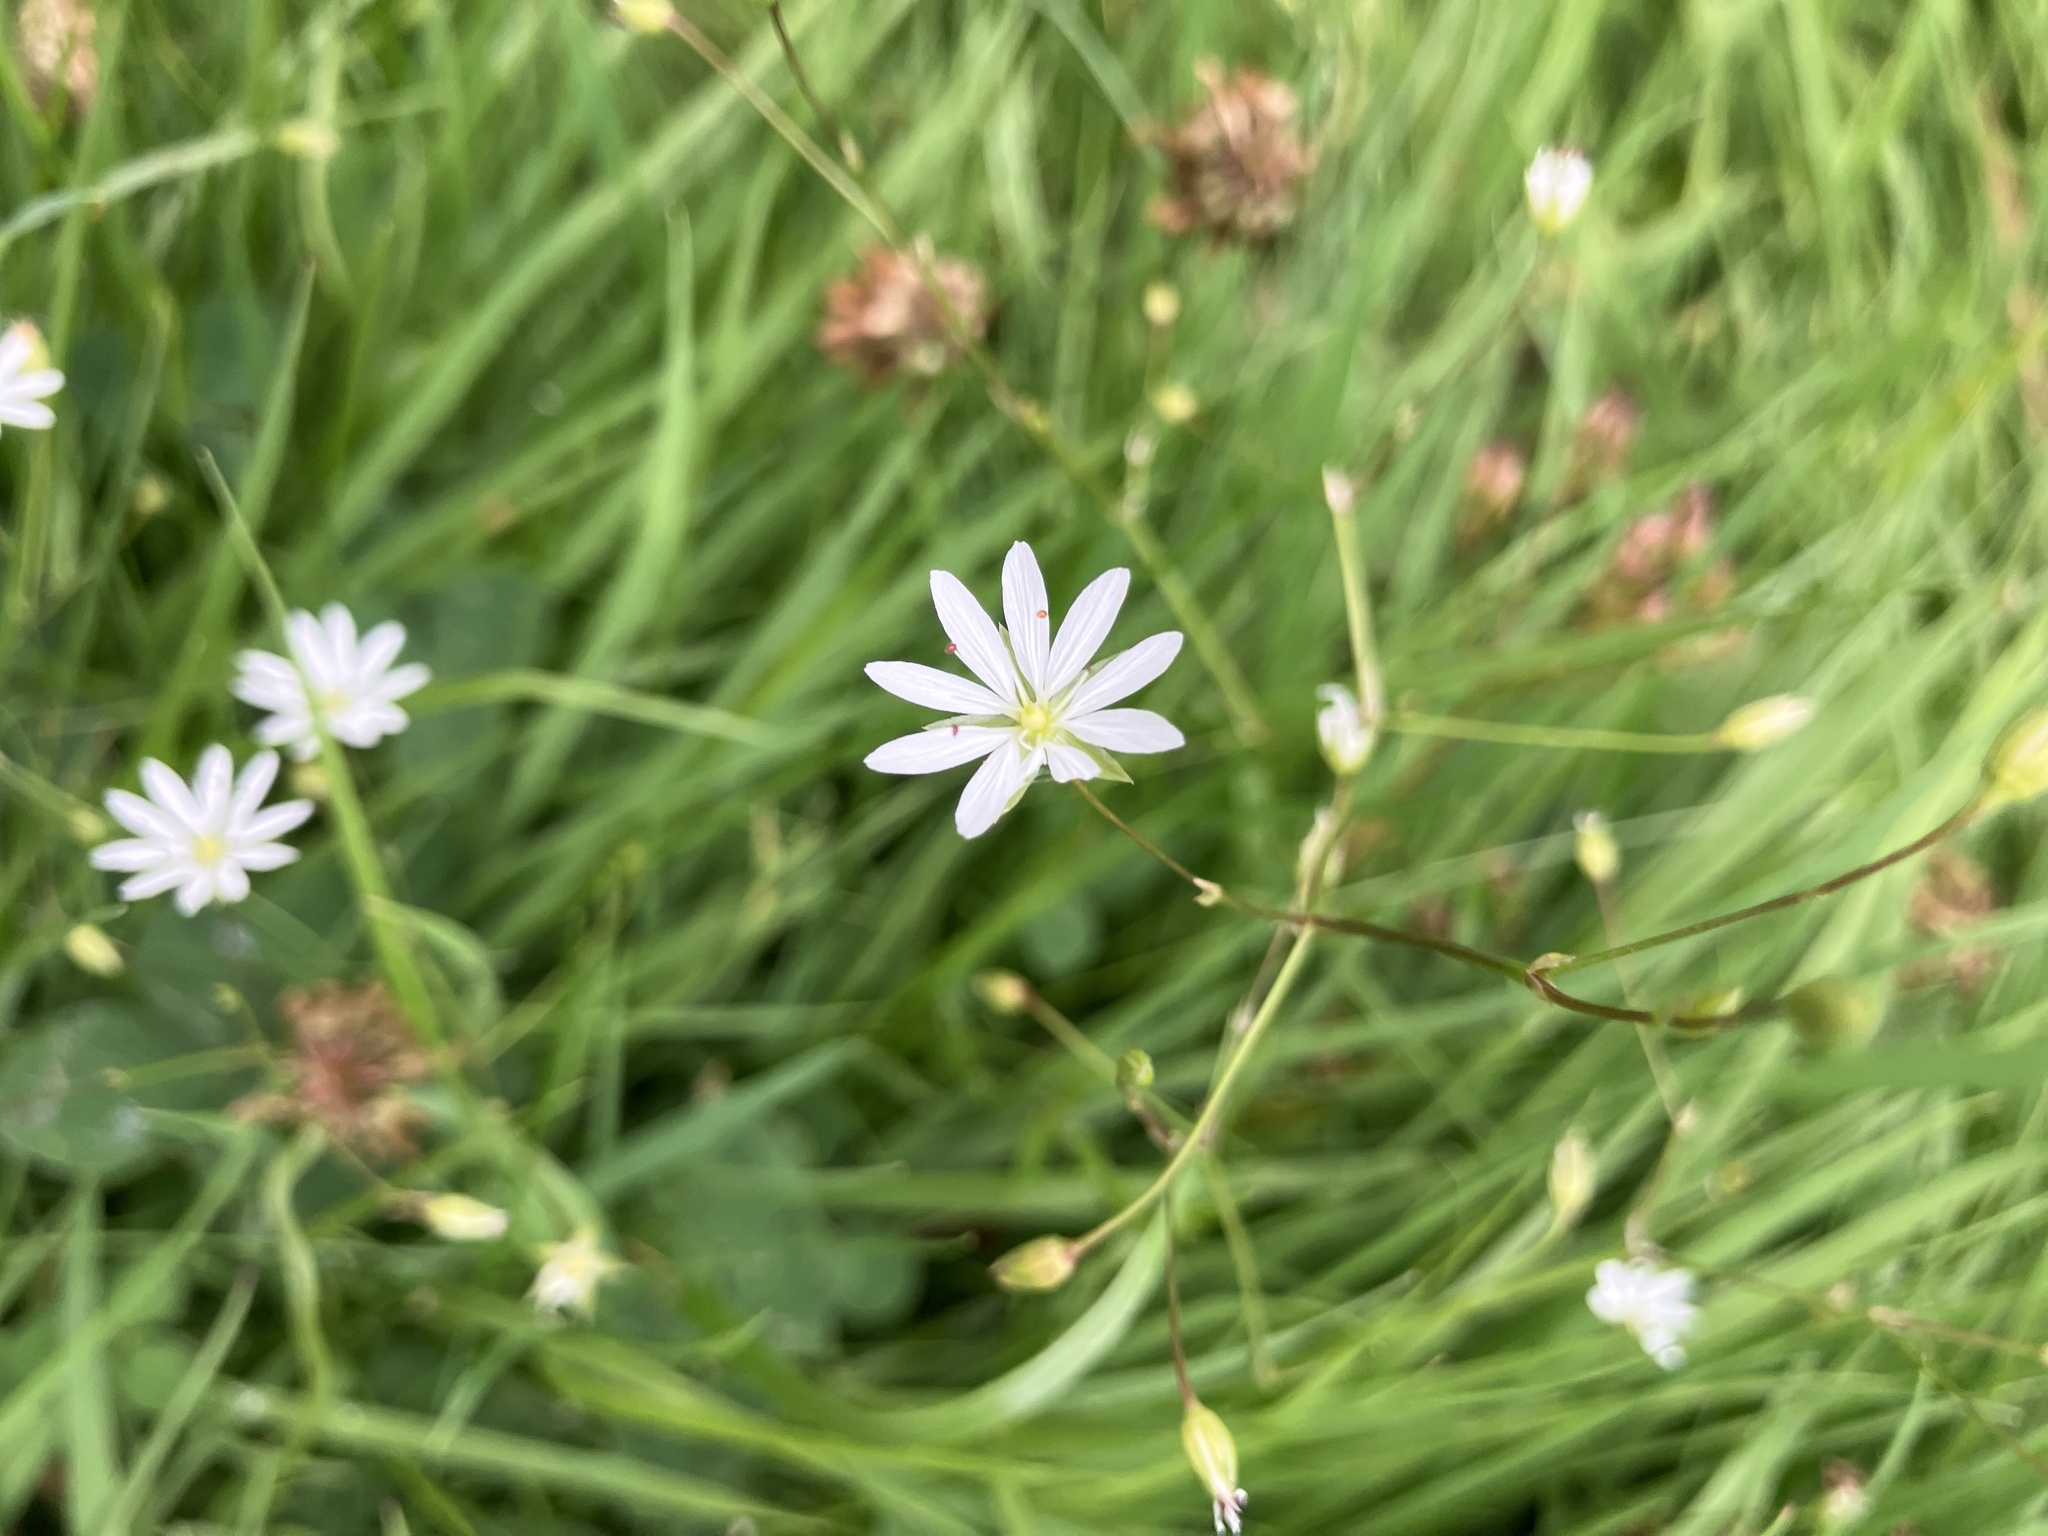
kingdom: Plantae
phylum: Tracheophyta
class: Magnoliopsida
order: Caryophyllales
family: Caryophyllaceae
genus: Stellaria
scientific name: Stellaria graminea
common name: Grass-like starwort
